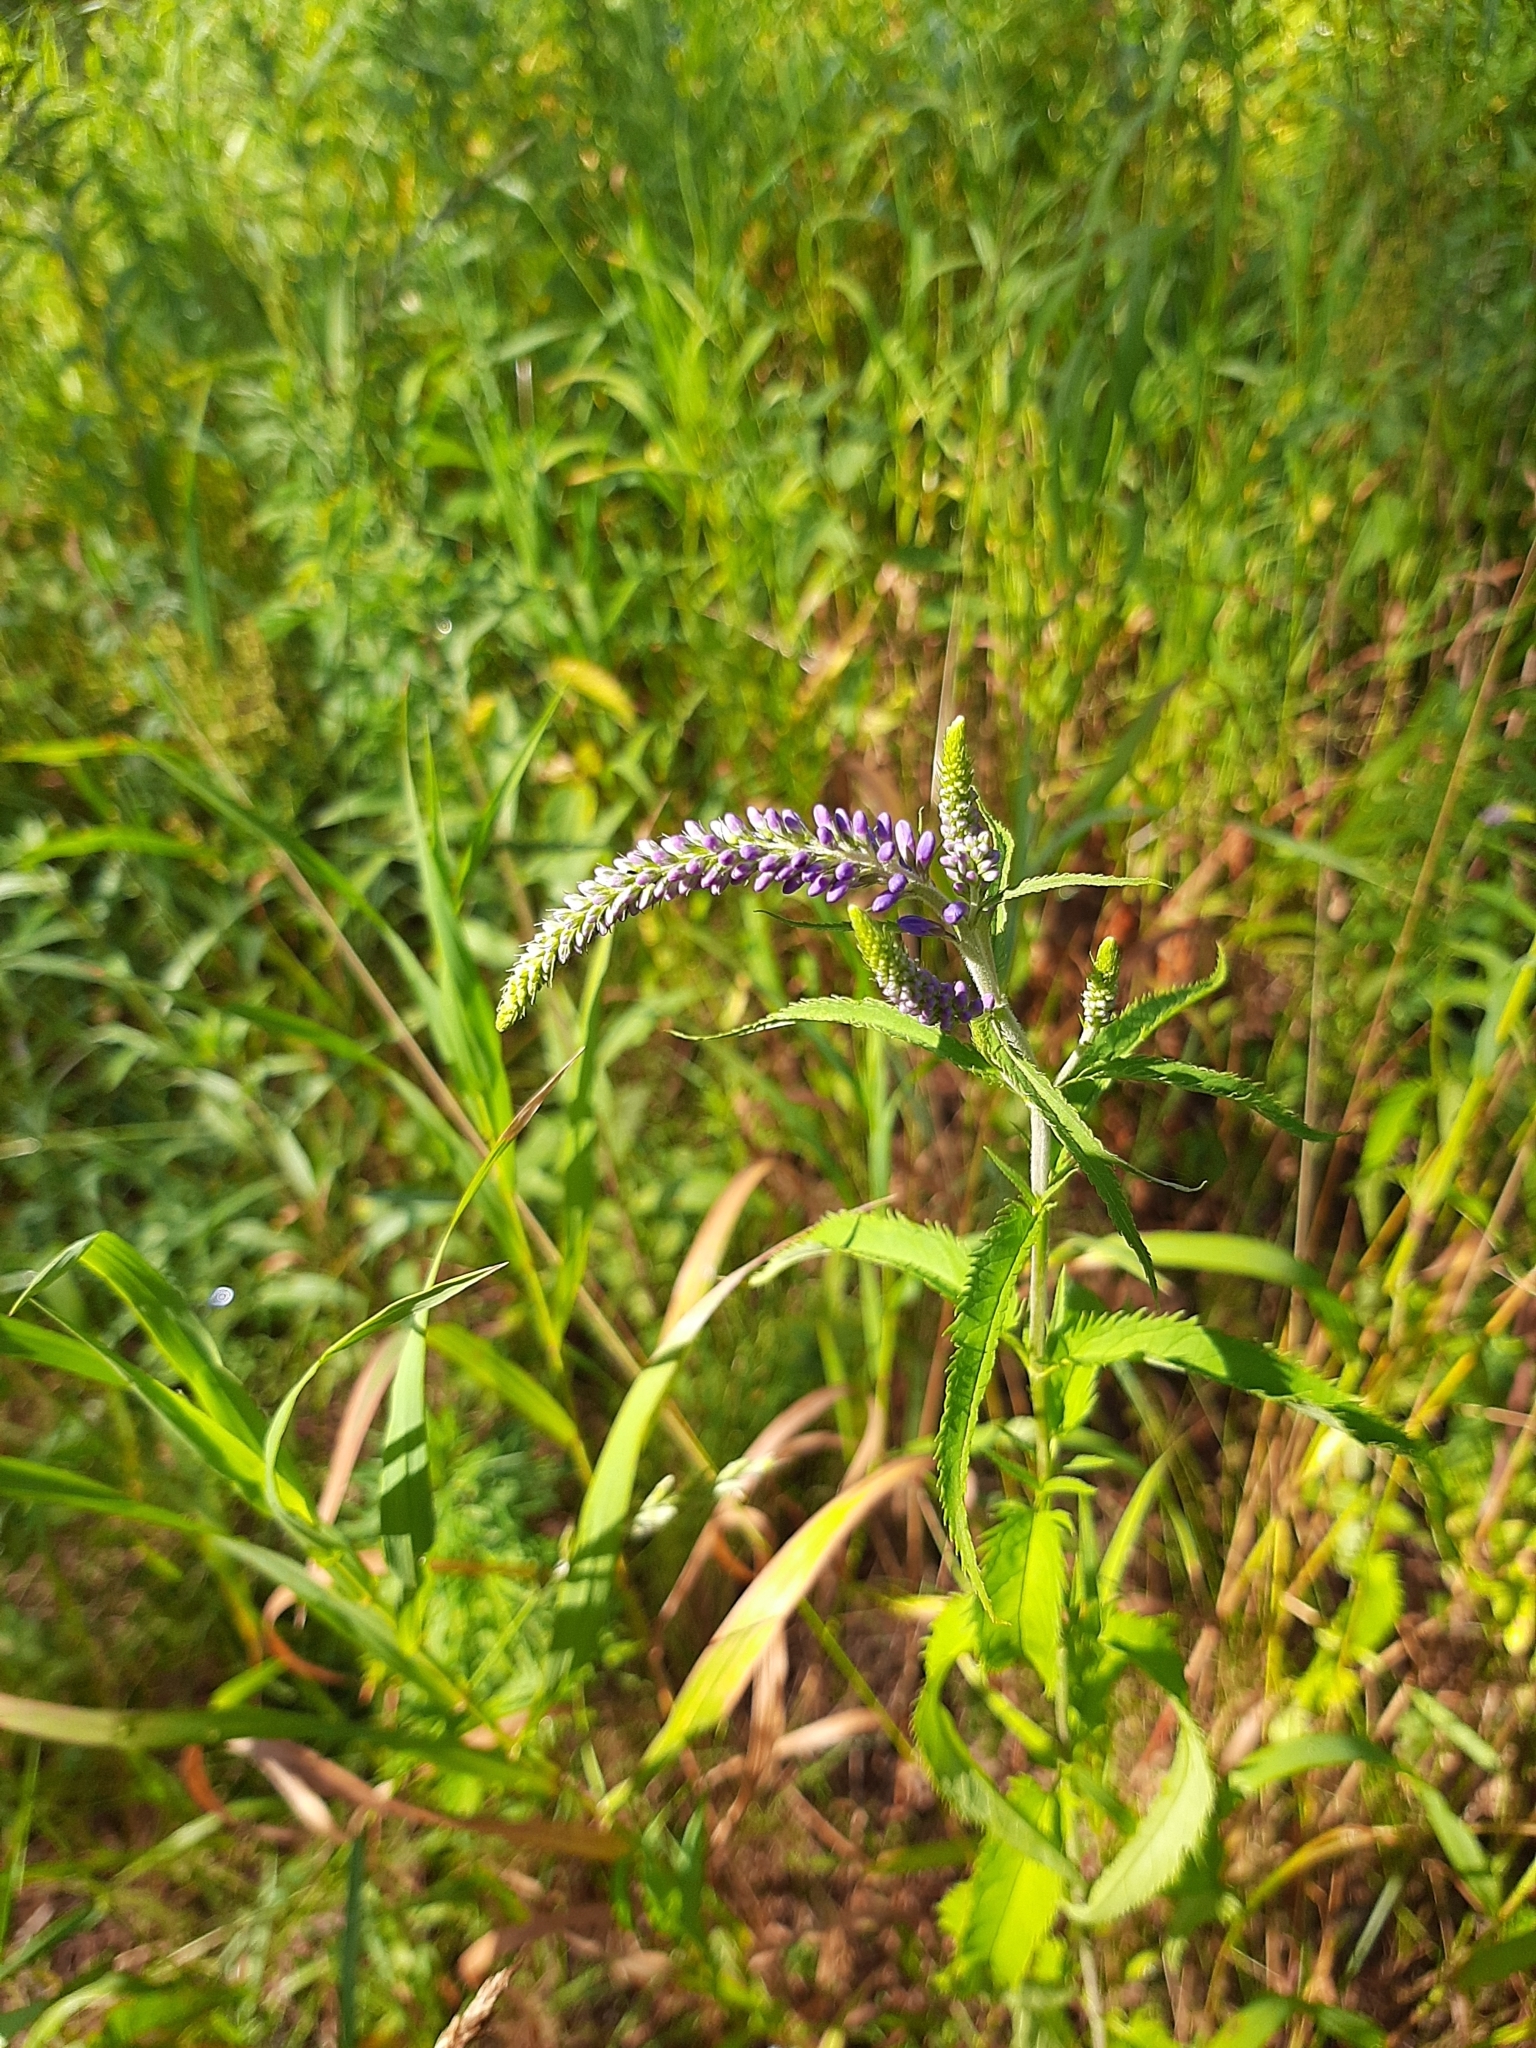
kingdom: Plantae
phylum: Tracheophyta
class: Magnoliopsida
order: Lamiales
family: Plantaginaceae
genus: Veronica
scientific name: Veronica longifolia
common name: Garden speedwell
